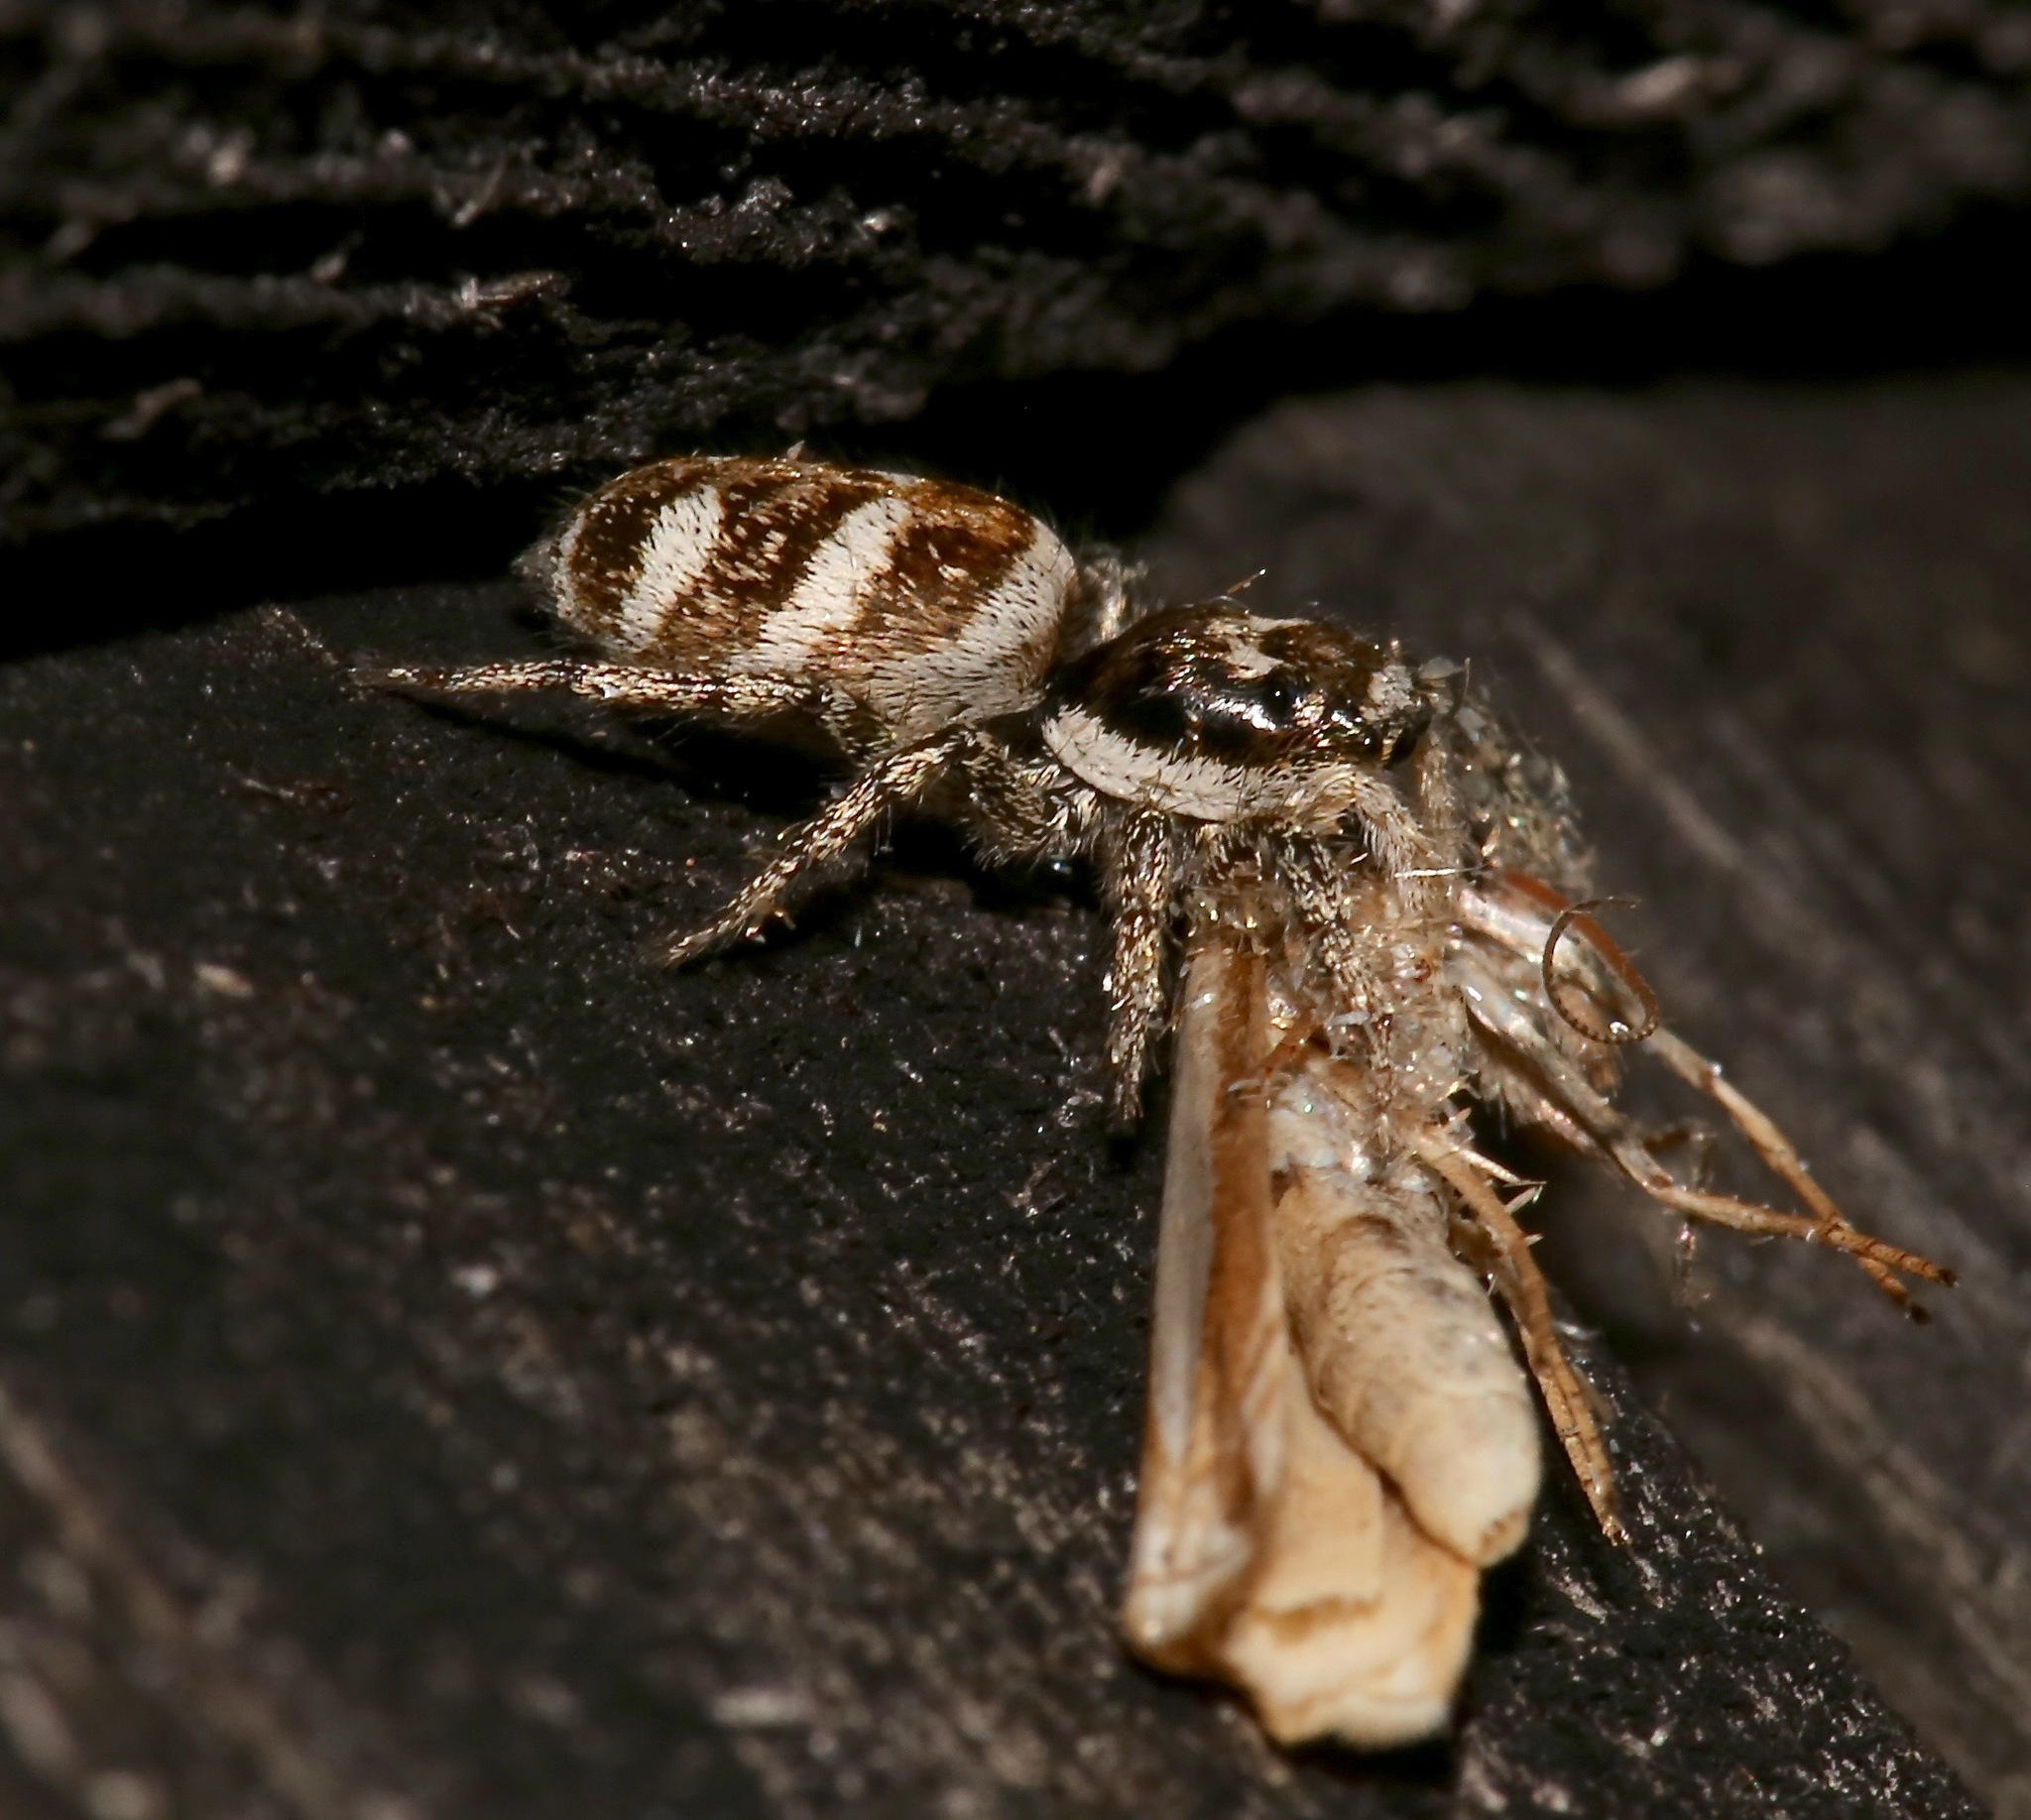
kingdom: Animalia
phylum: Arthropoda
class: Arachnida
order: Araneae
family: Salticidae
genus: Salticus
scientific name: Salticus scenicus
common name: Zebra jumper
